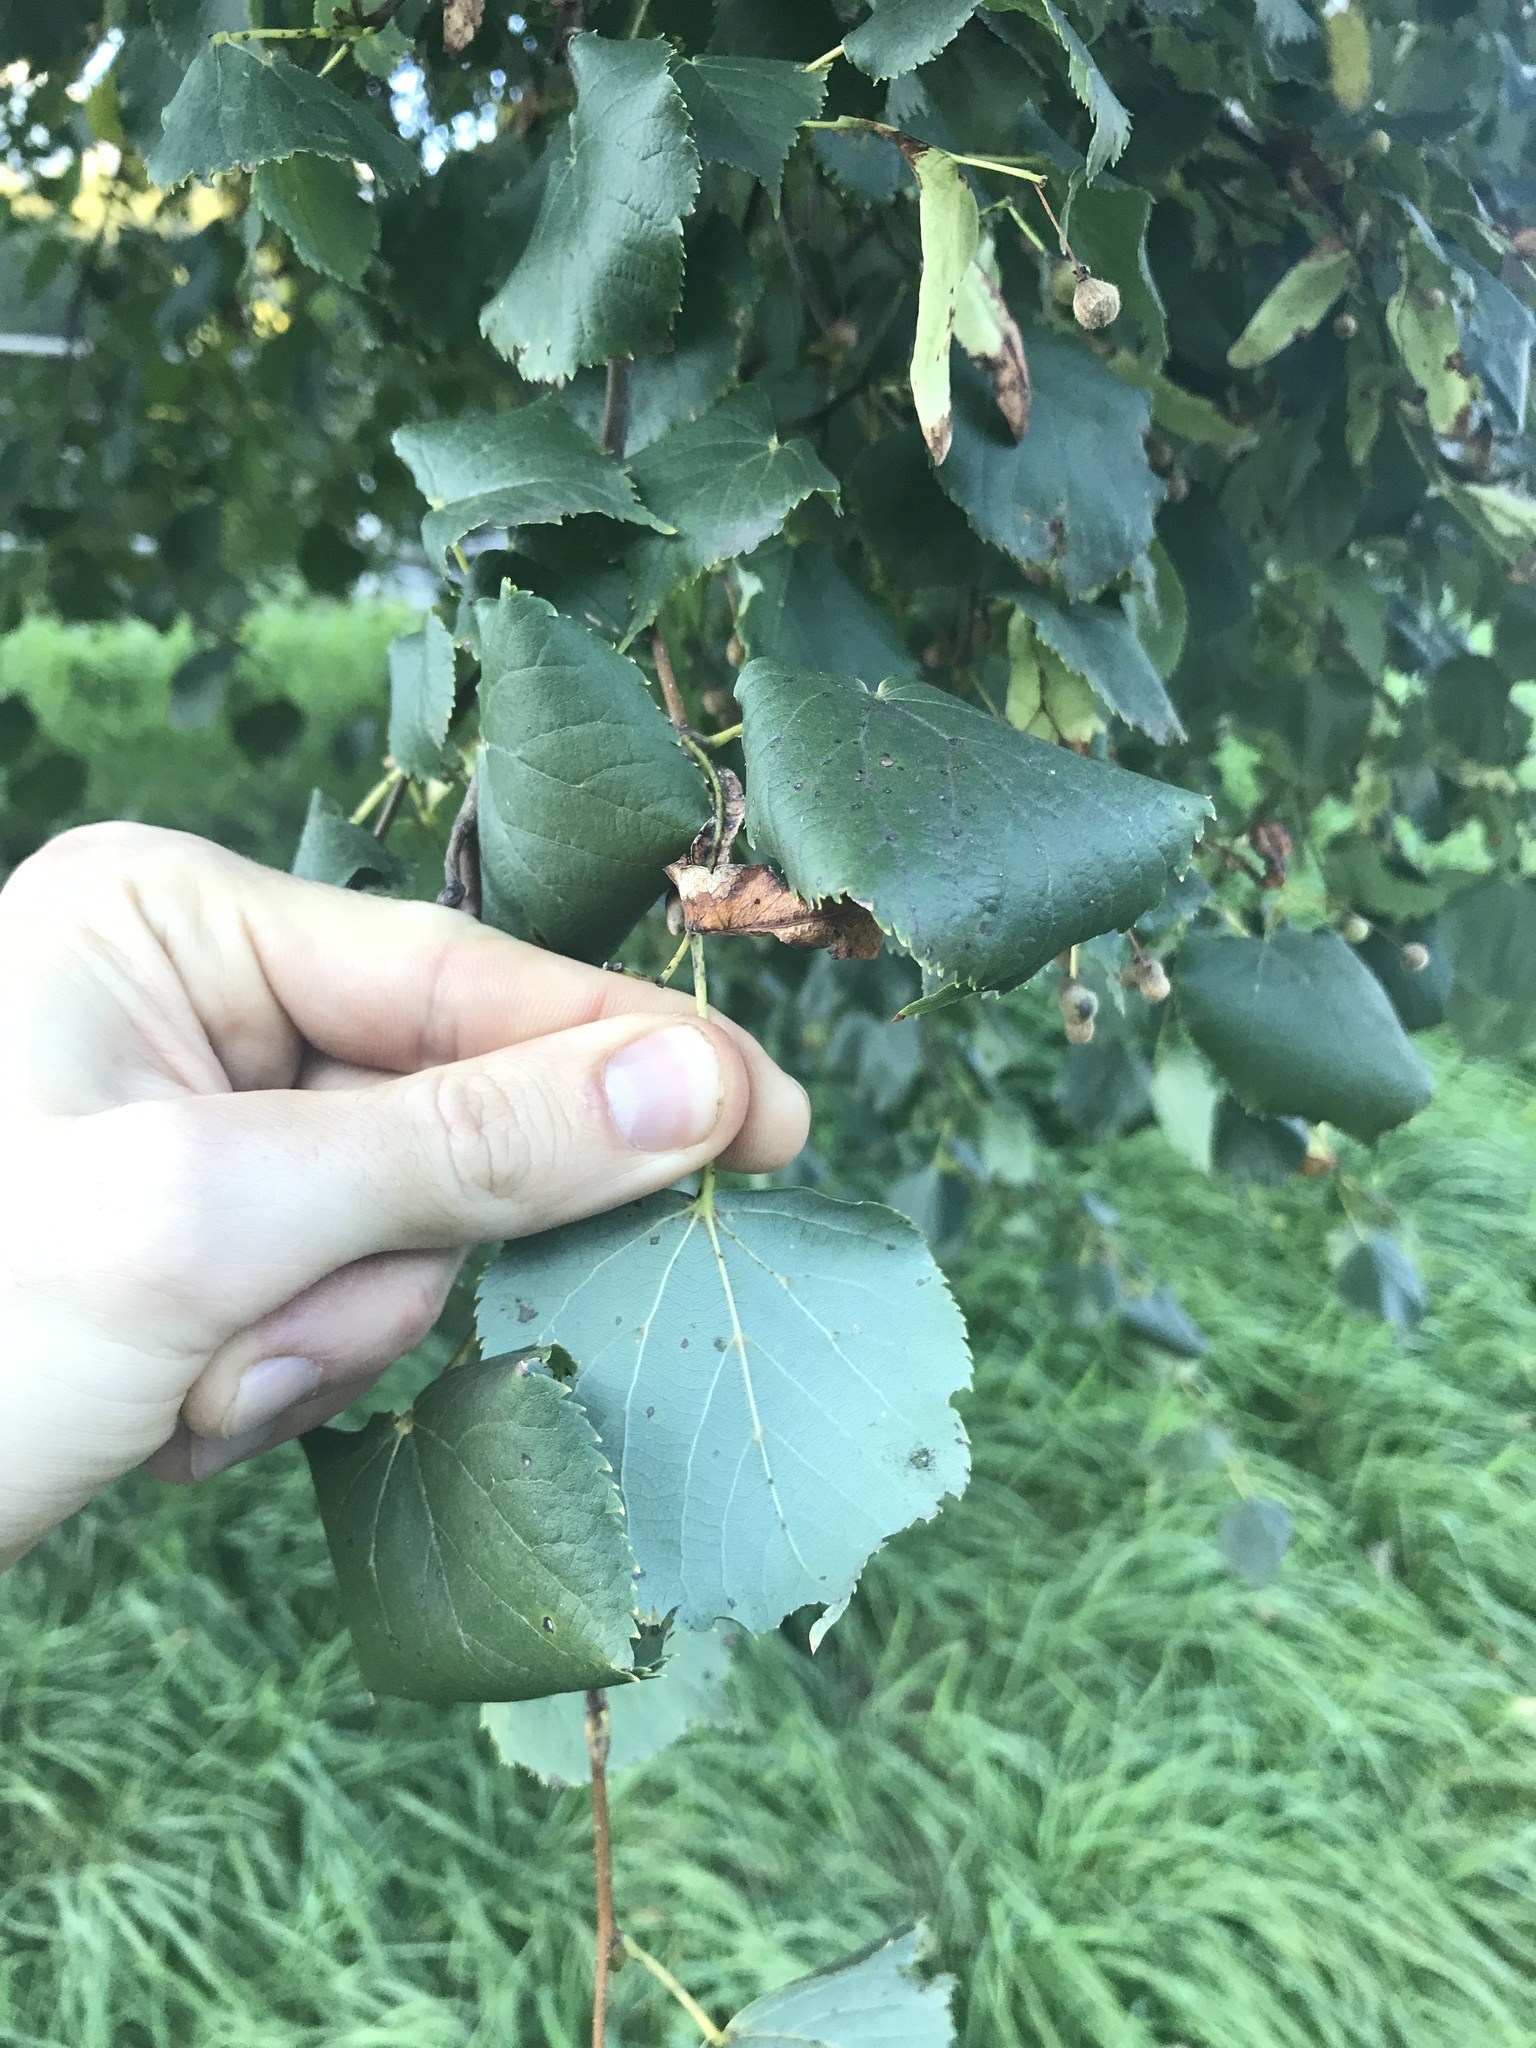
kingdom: Plantae
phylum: Tracheophyta
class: Magnoliopsida
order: Malvales
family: Malvaceae
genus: Tilia
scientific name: Tilia cordata
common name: Small-leaved lime
